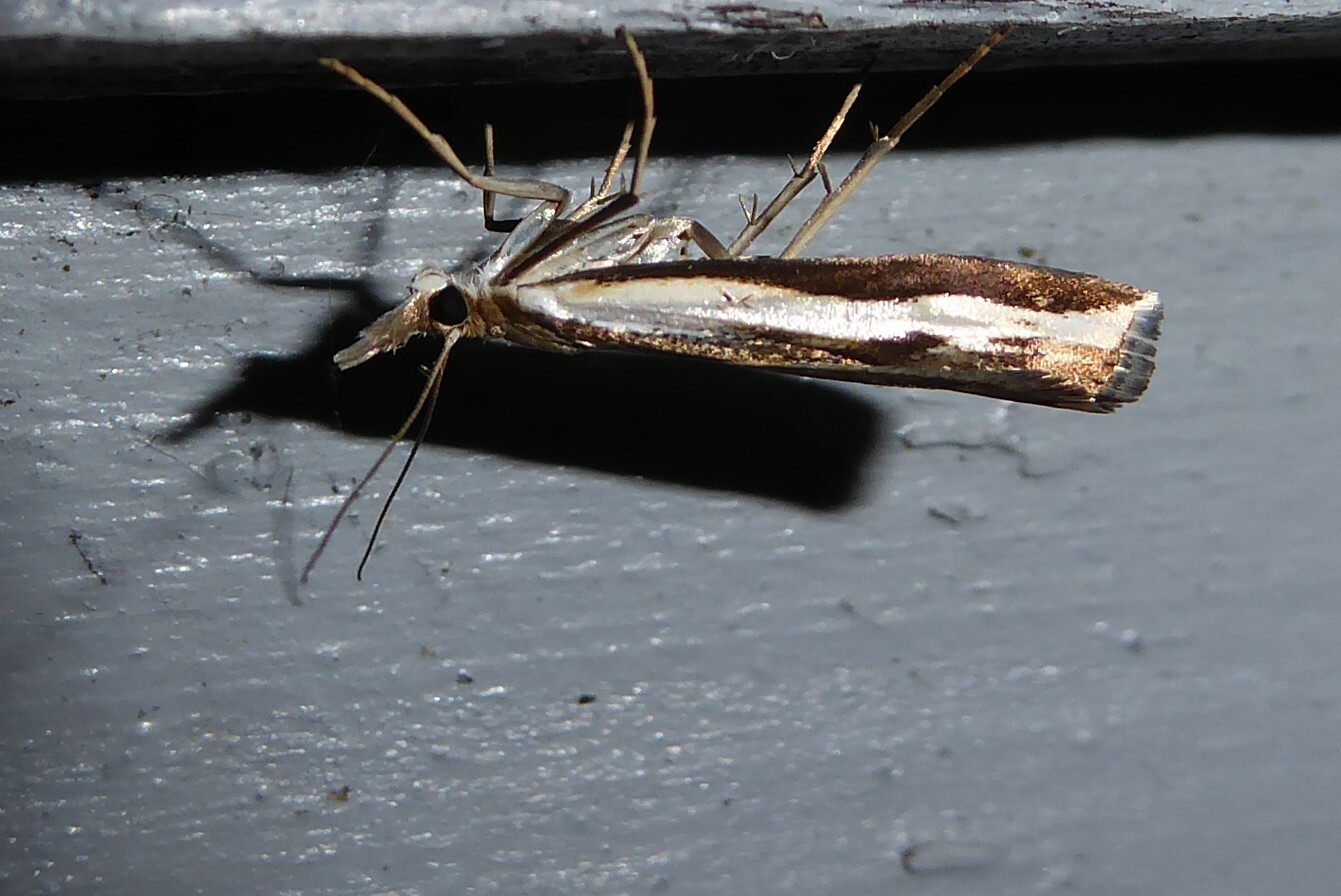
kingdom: Animalia
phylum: Arthropoda
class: Insecta
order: Lepidoptera
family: Crambidae
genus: Orocrambus
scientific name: Orocrambus flexuosellus
